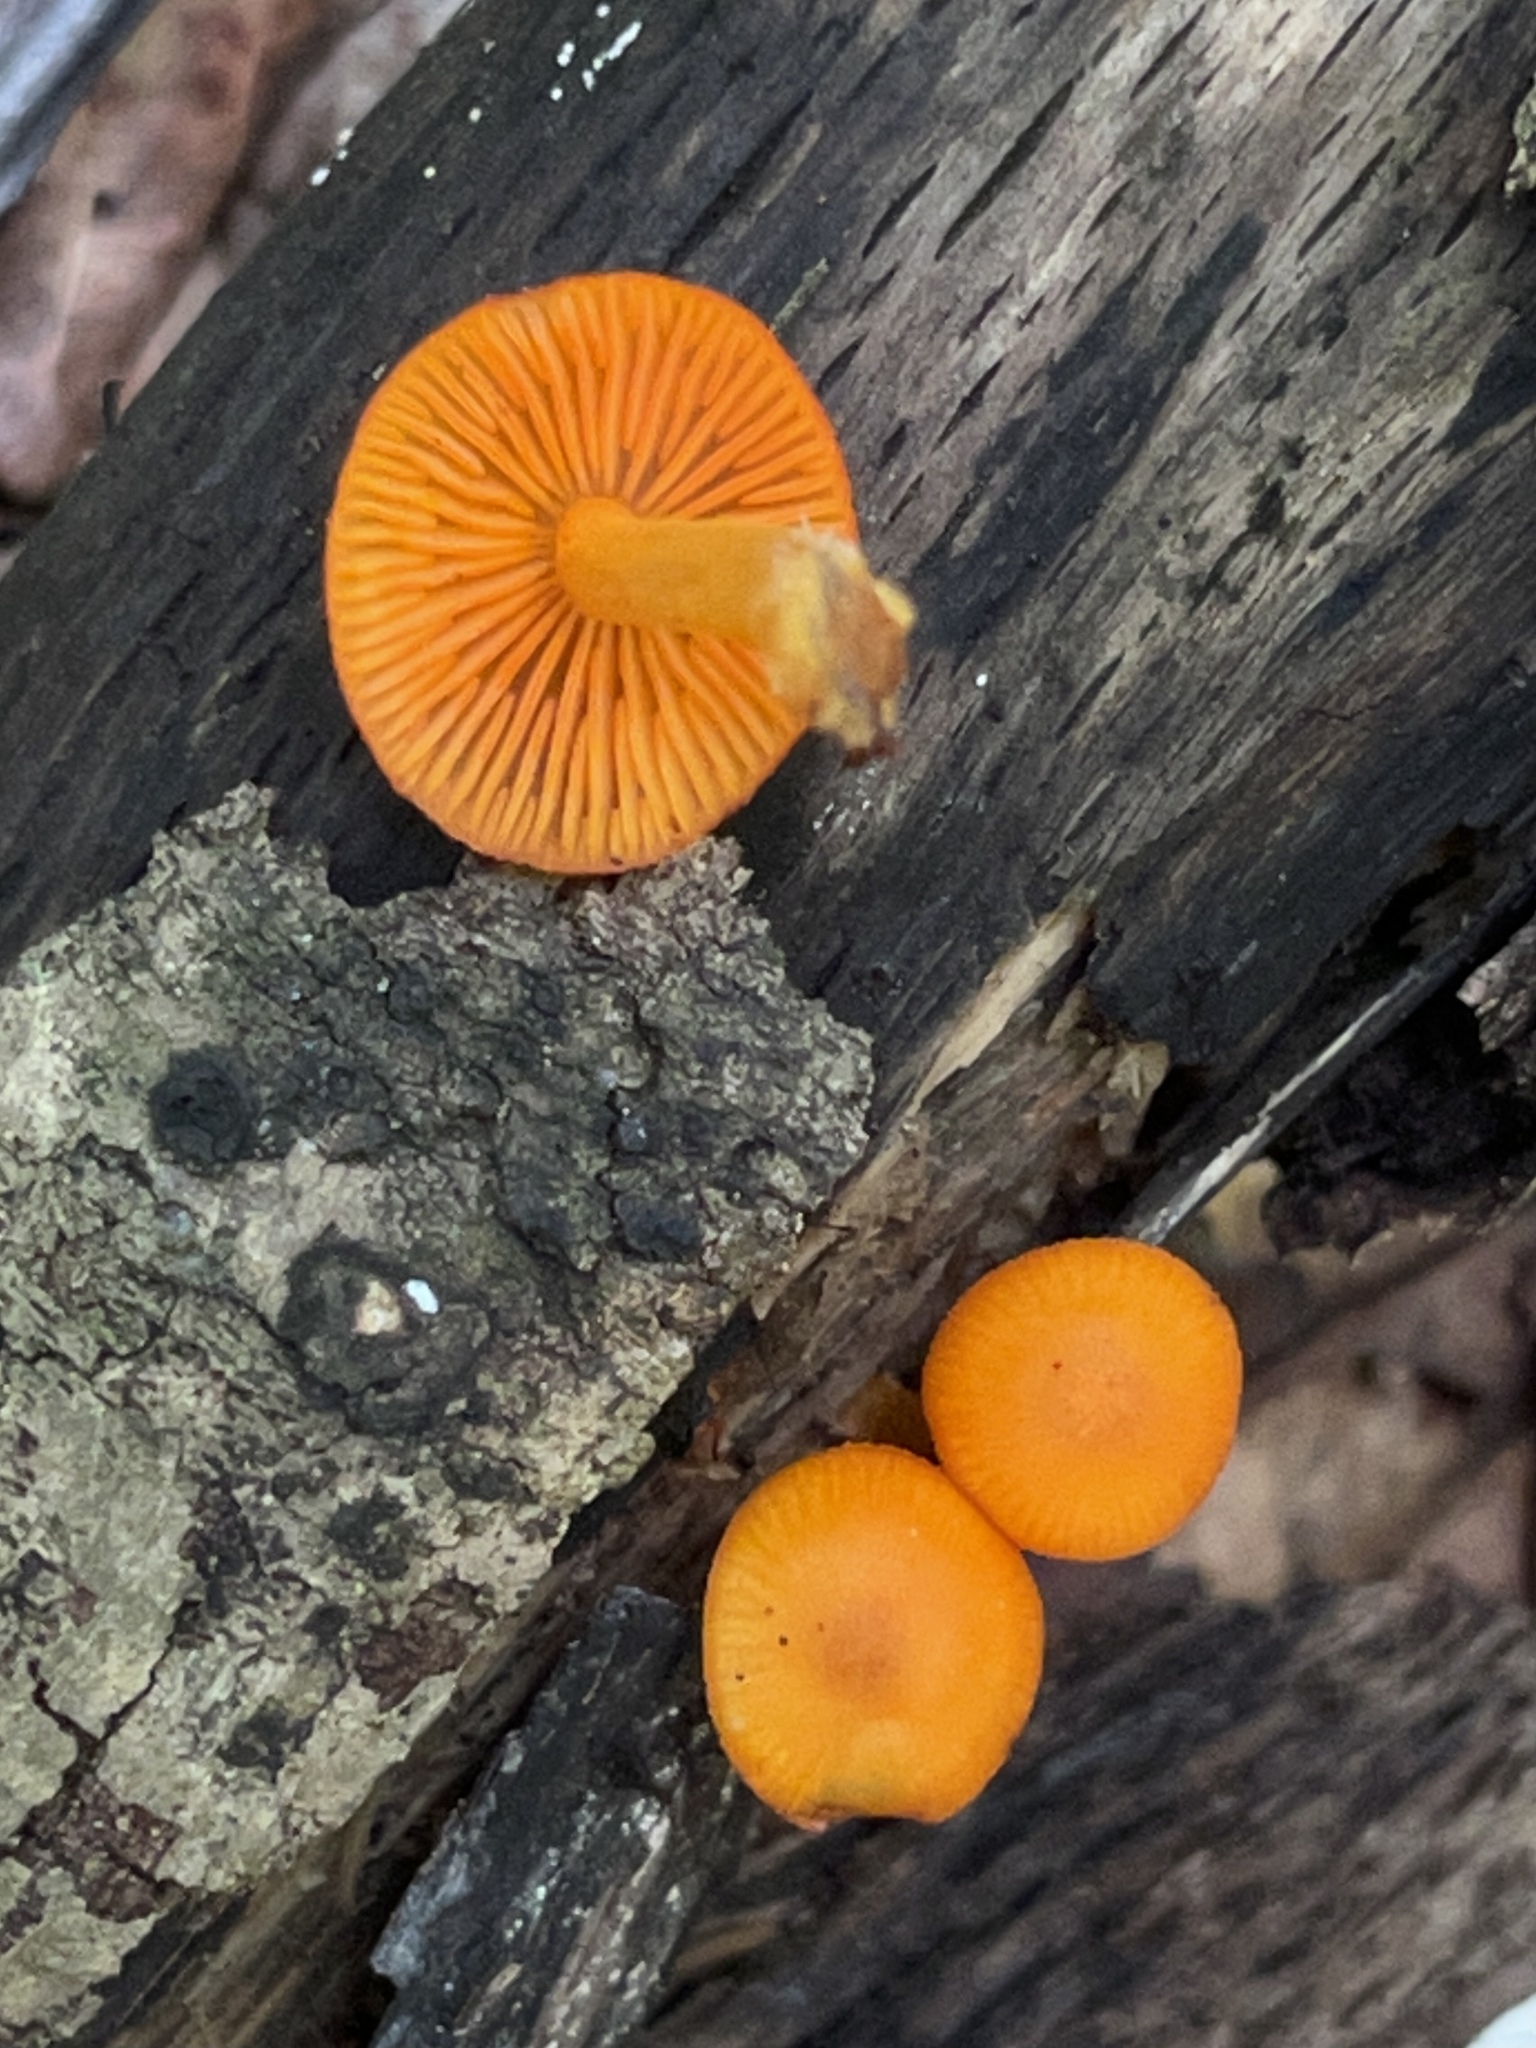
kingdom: Fungi
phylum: Basidiomycota
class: Agaricomycetes
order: Agaricales
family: Mycenaceae
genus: Mycena
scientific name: Mycena leaiana
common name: Orange mycena
